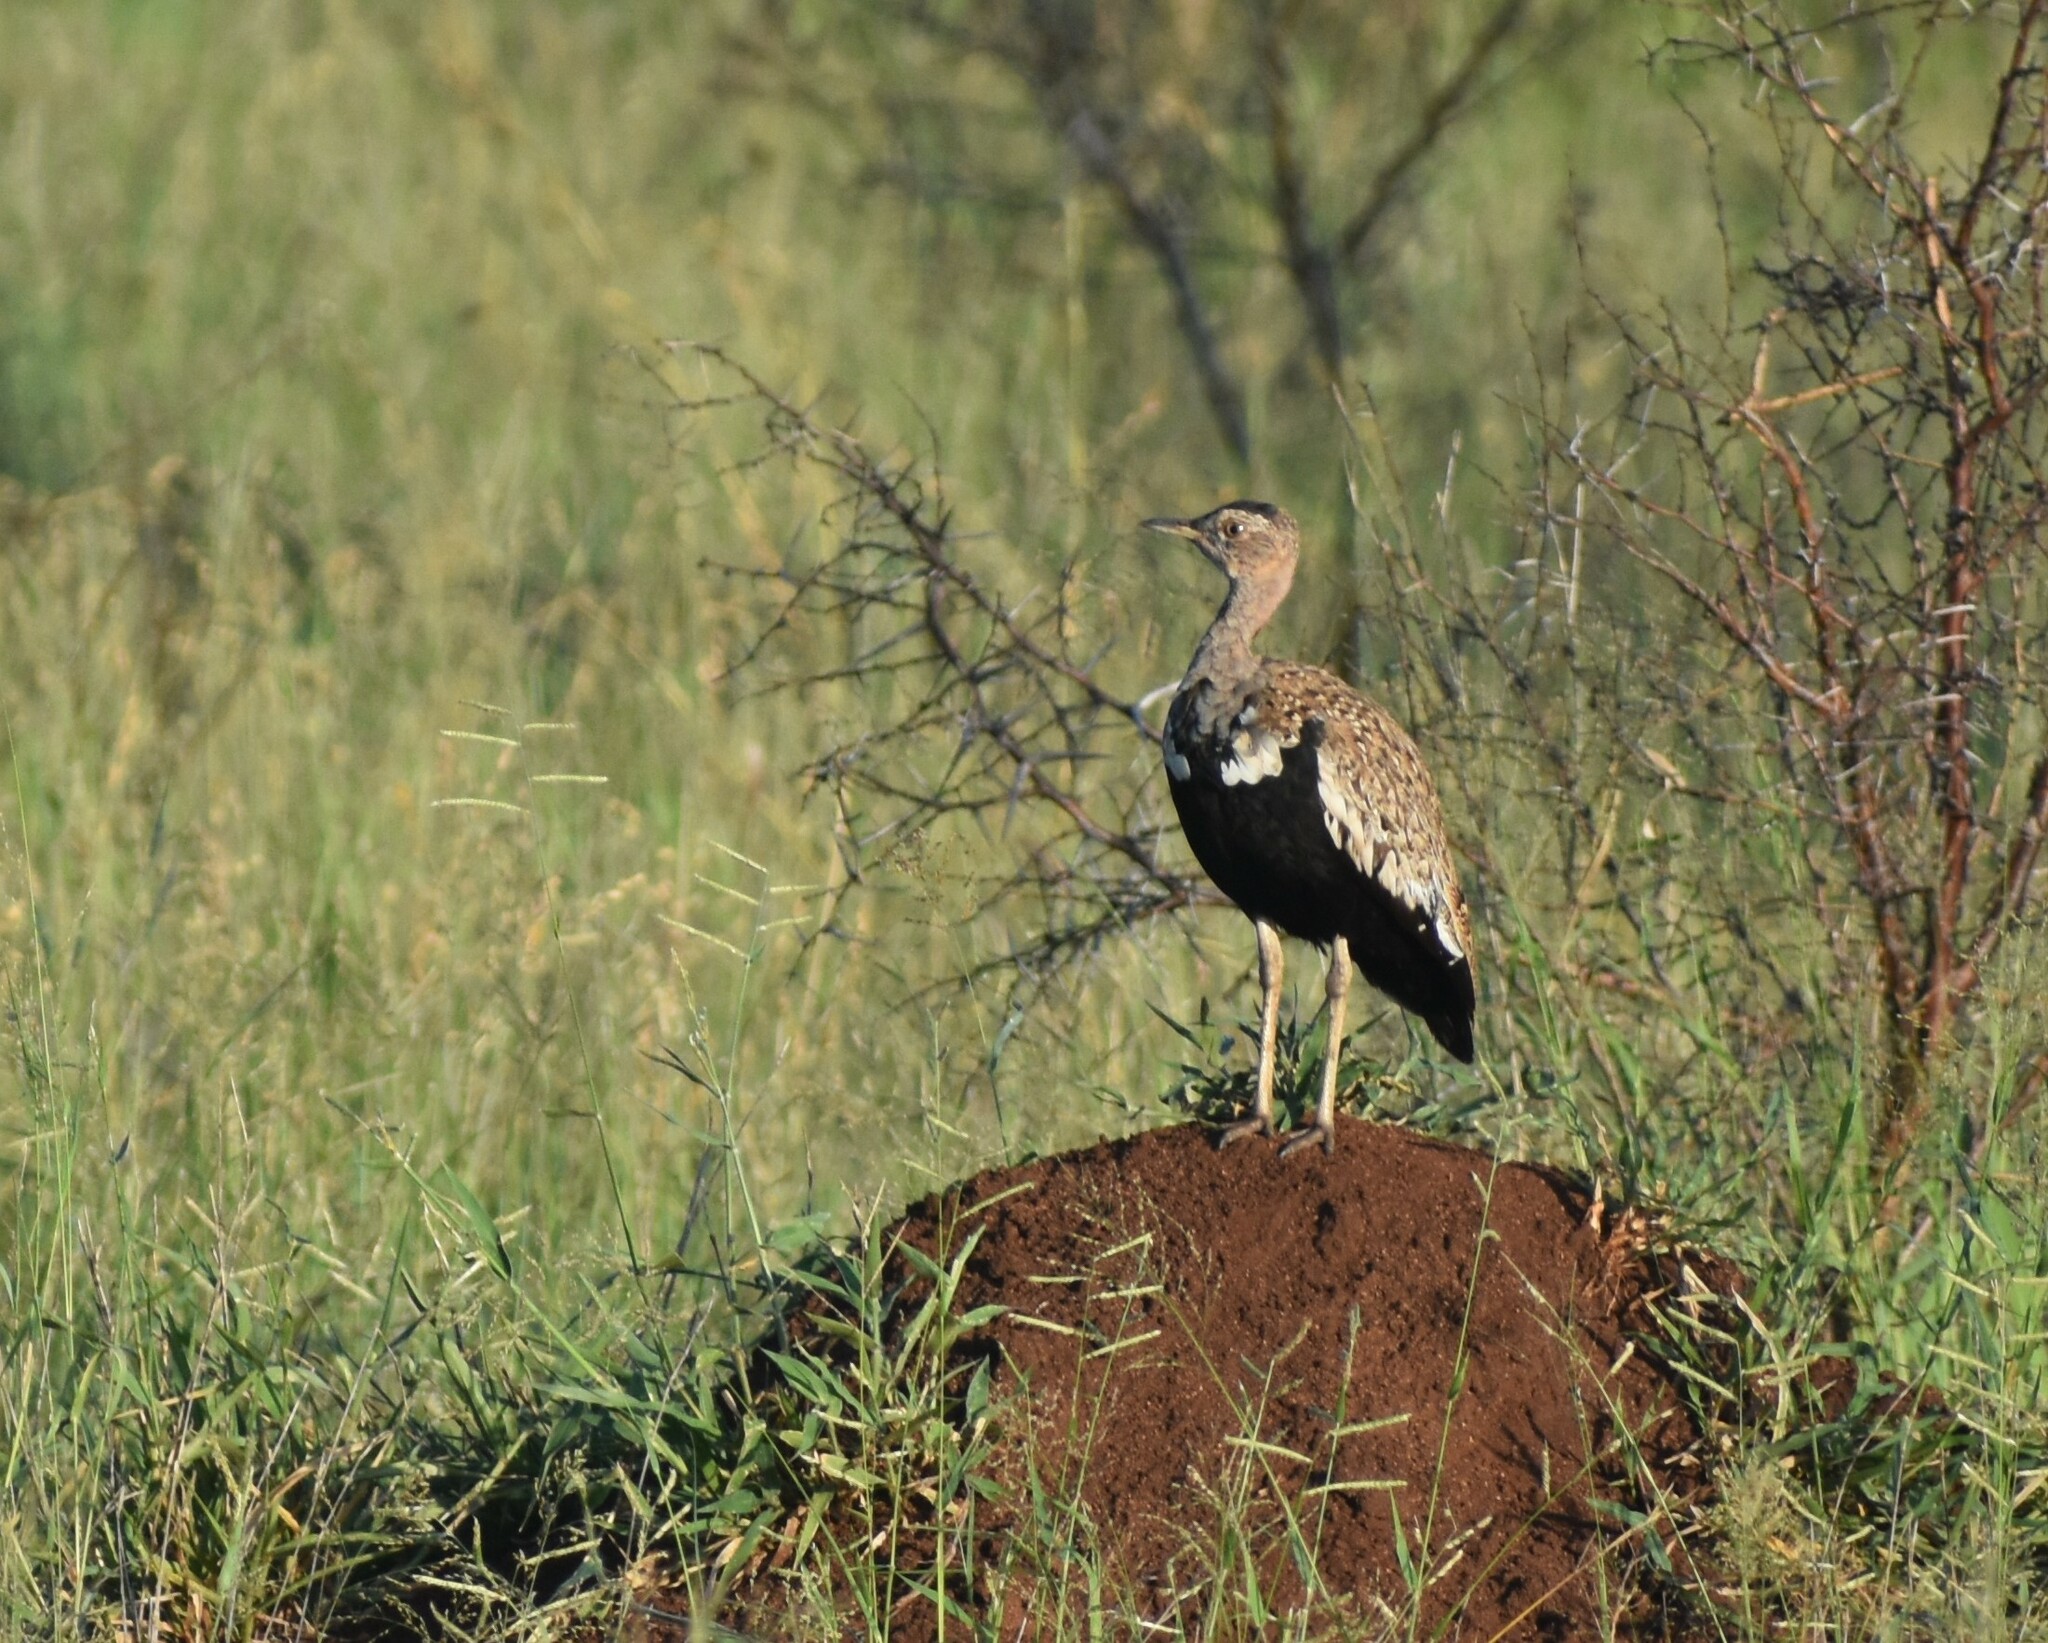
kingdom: Animalia
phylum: Chordata
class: Aves
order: Otidiformes
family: Otididae
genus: Lophotis
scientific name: Lophotis ruficrista
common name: Red-crested korhaan
